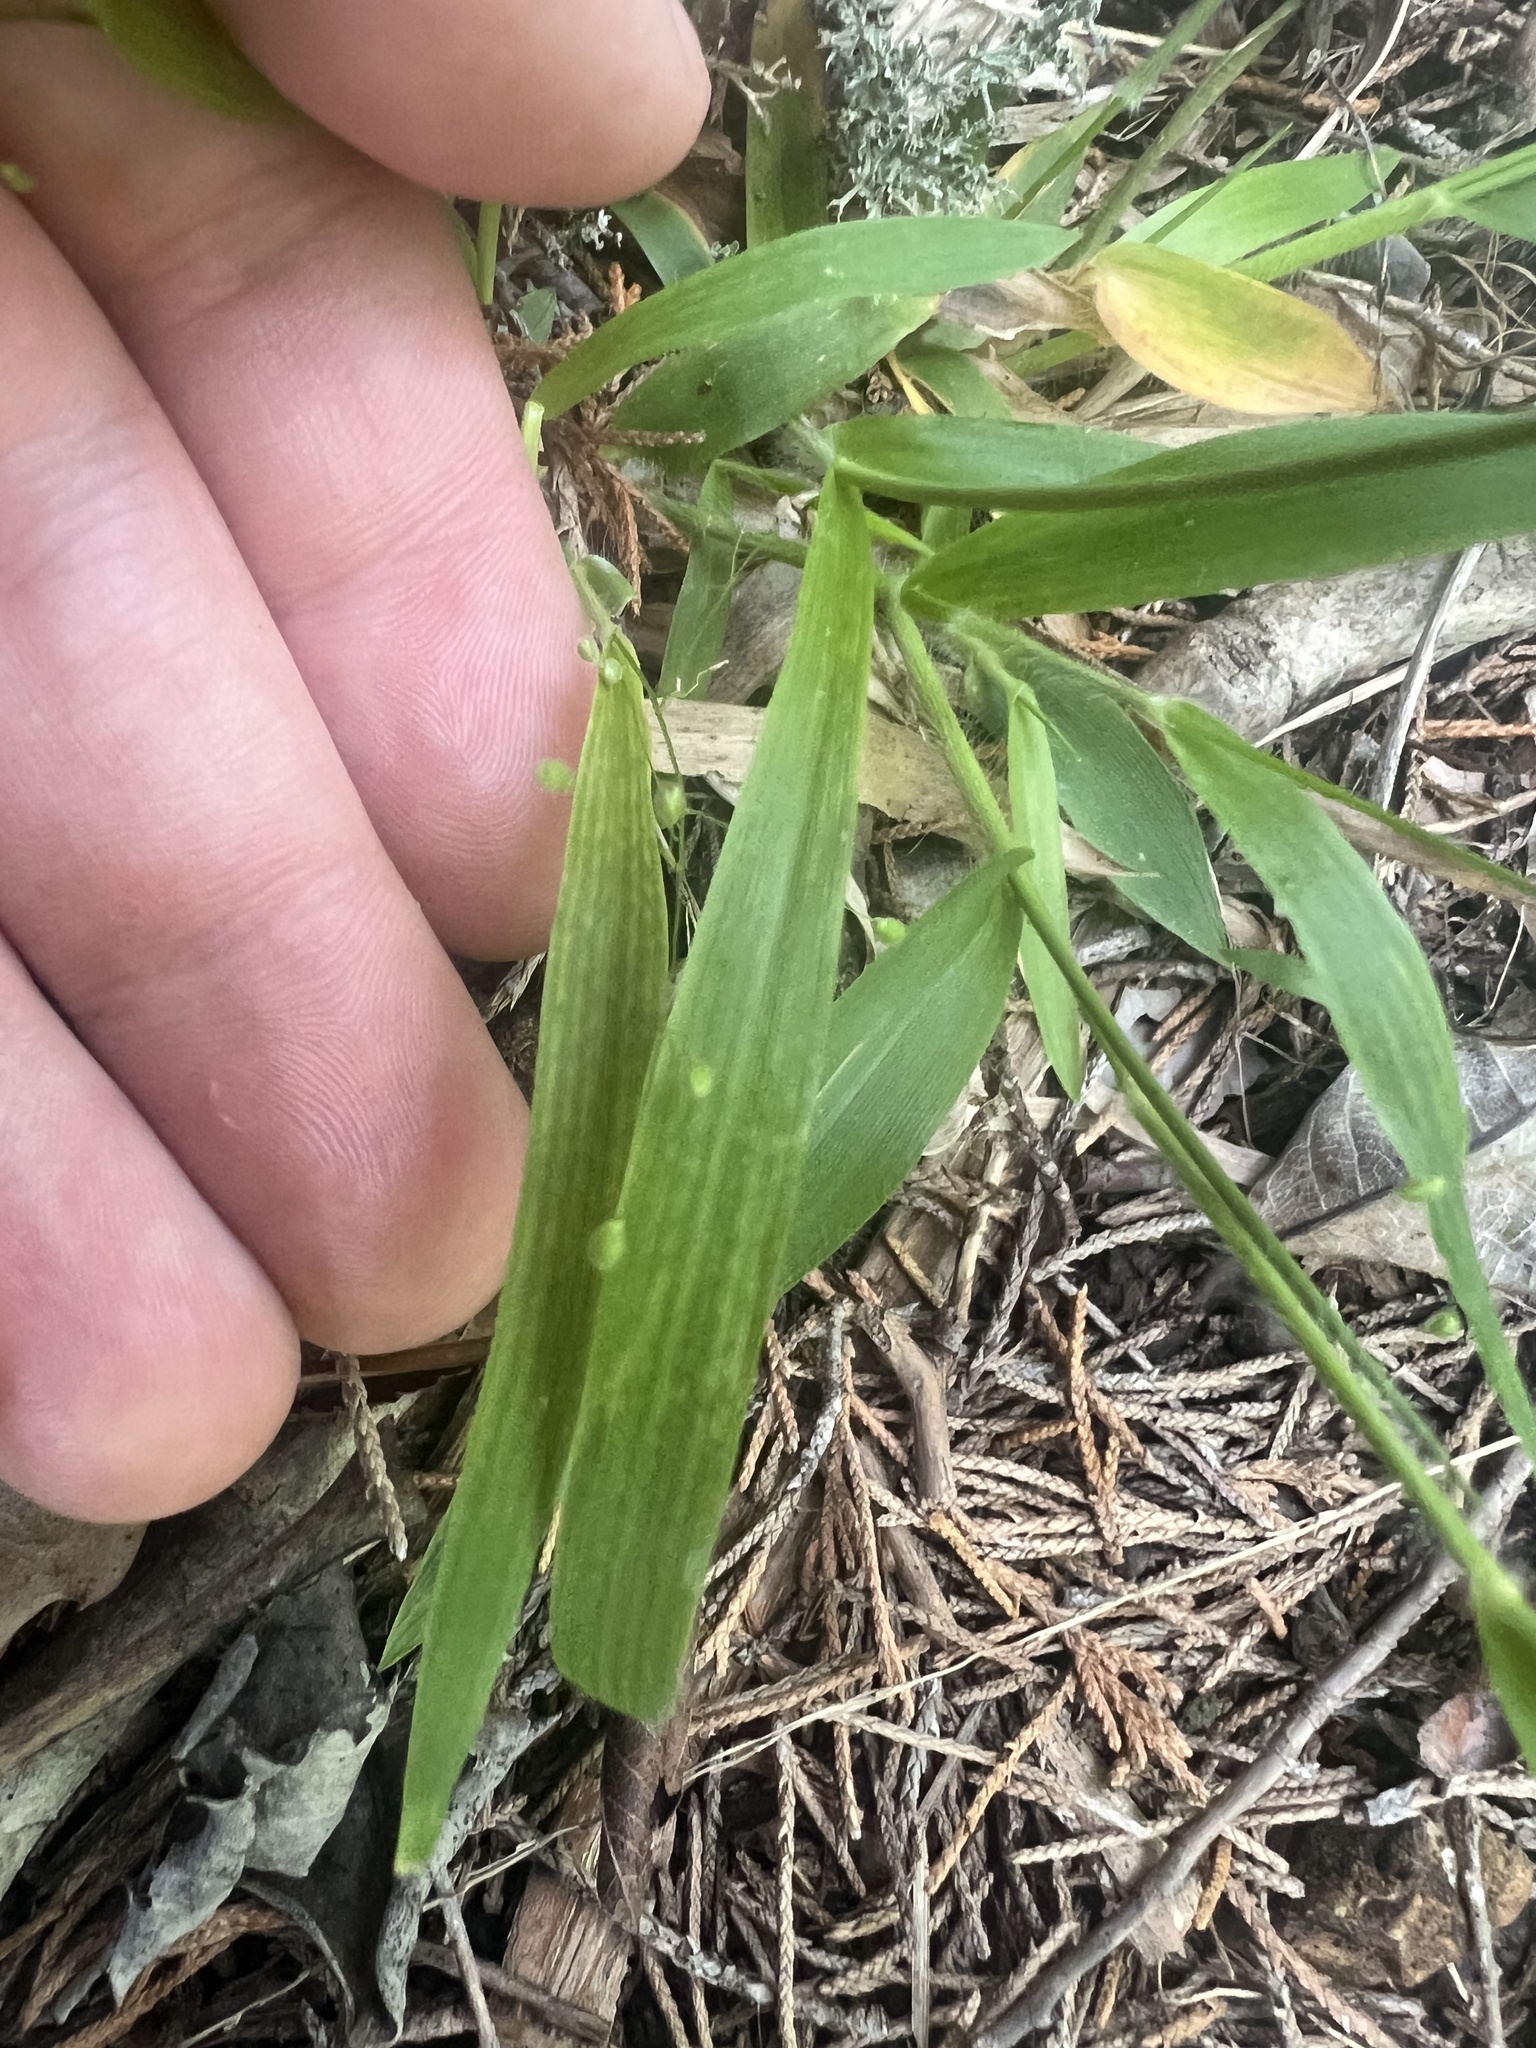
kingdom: Plantae
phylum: Tracheophyta
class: Liliopsida
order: Poales
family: Poaceae
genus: Dichanthelium
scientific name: Dichanthelium laxiflorum
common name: Soft-tuft panic grass
